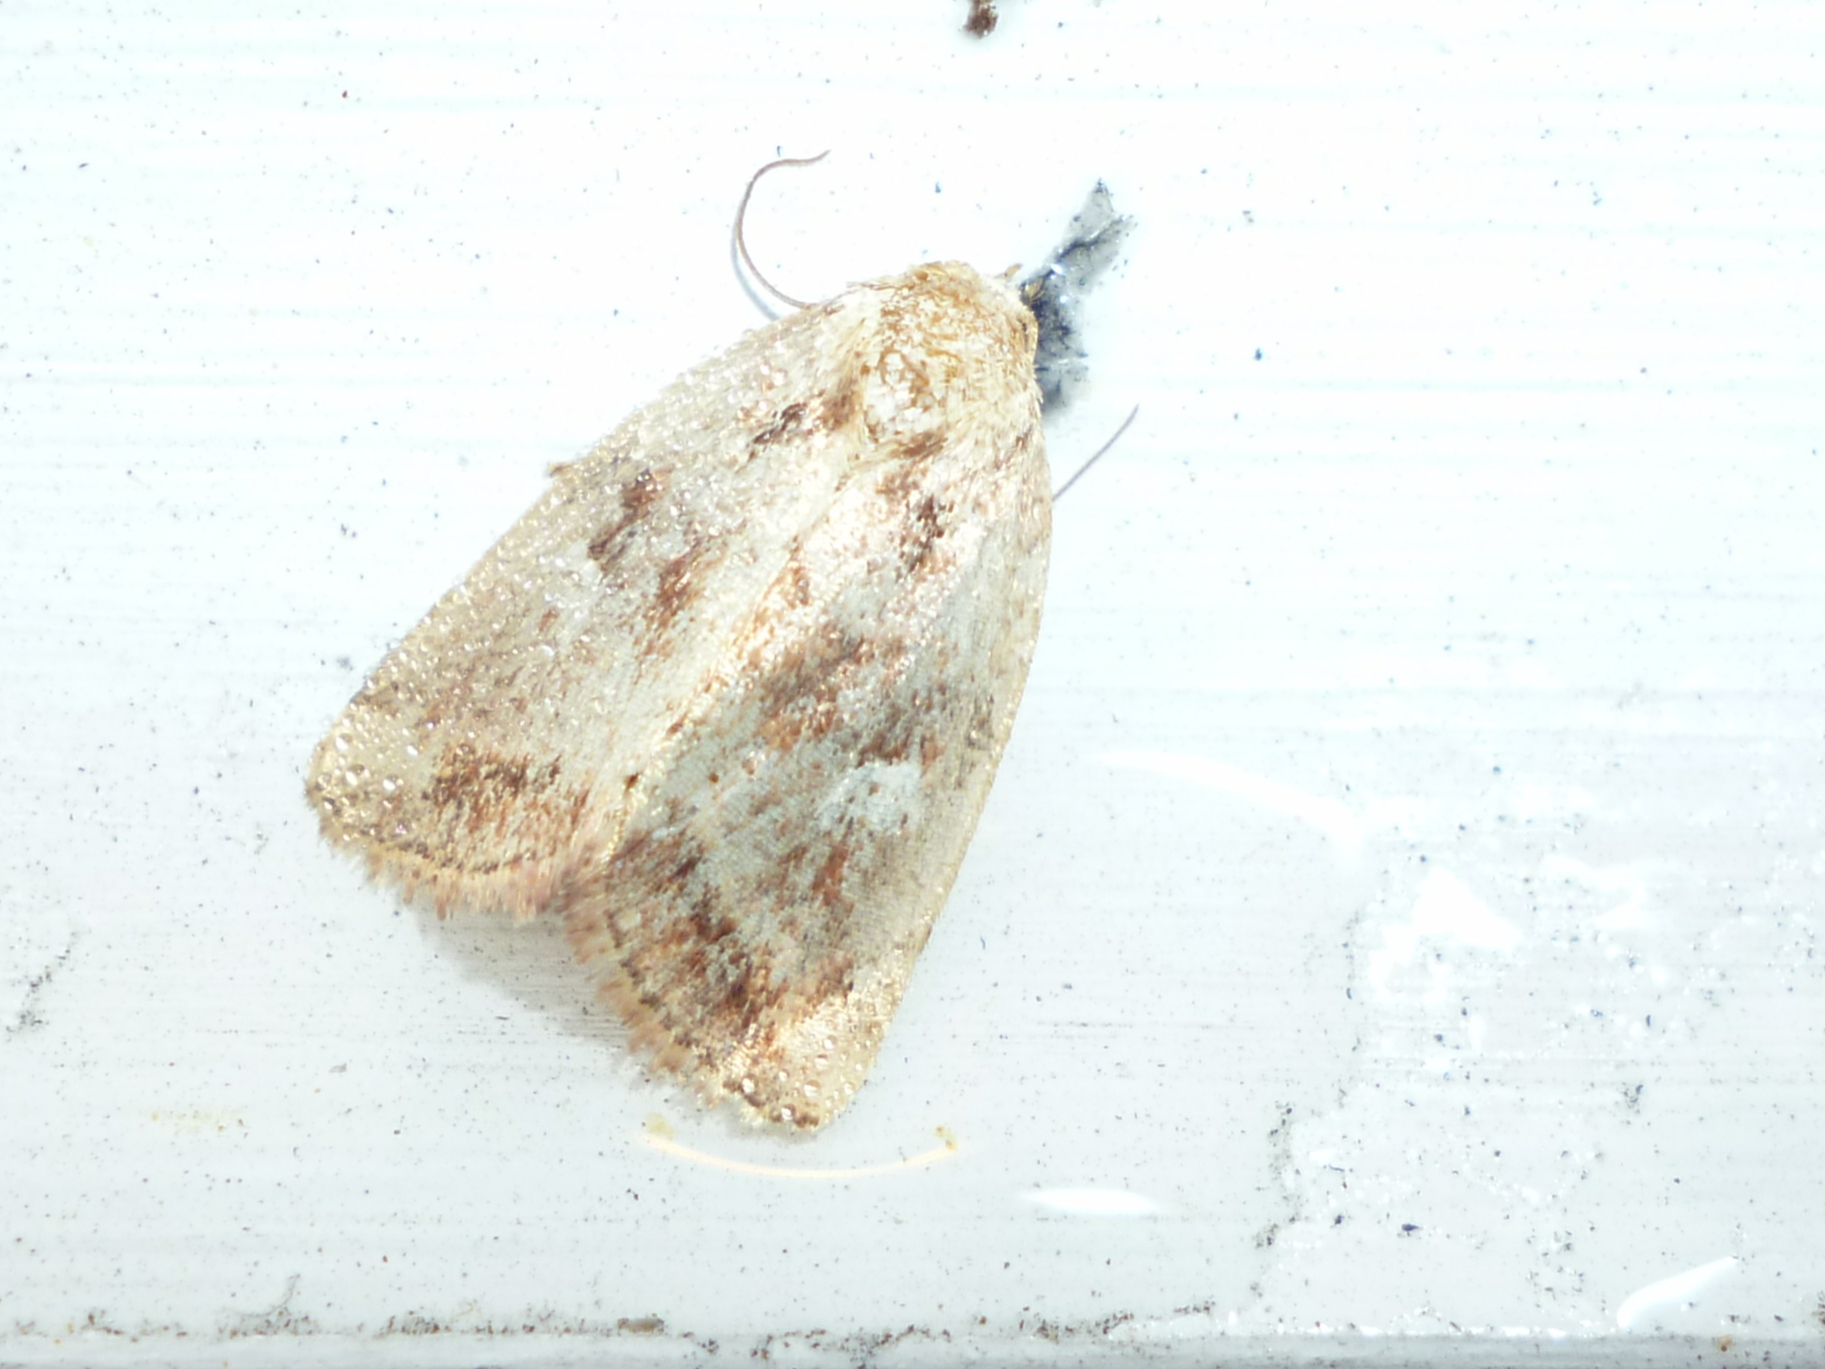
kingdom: Animalia
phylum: Arthropoda
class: Insecta
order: Lepidoptera
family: Noctuidae
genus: Photedes
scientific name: Photedes includens
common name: Included cordgrass borer moth
